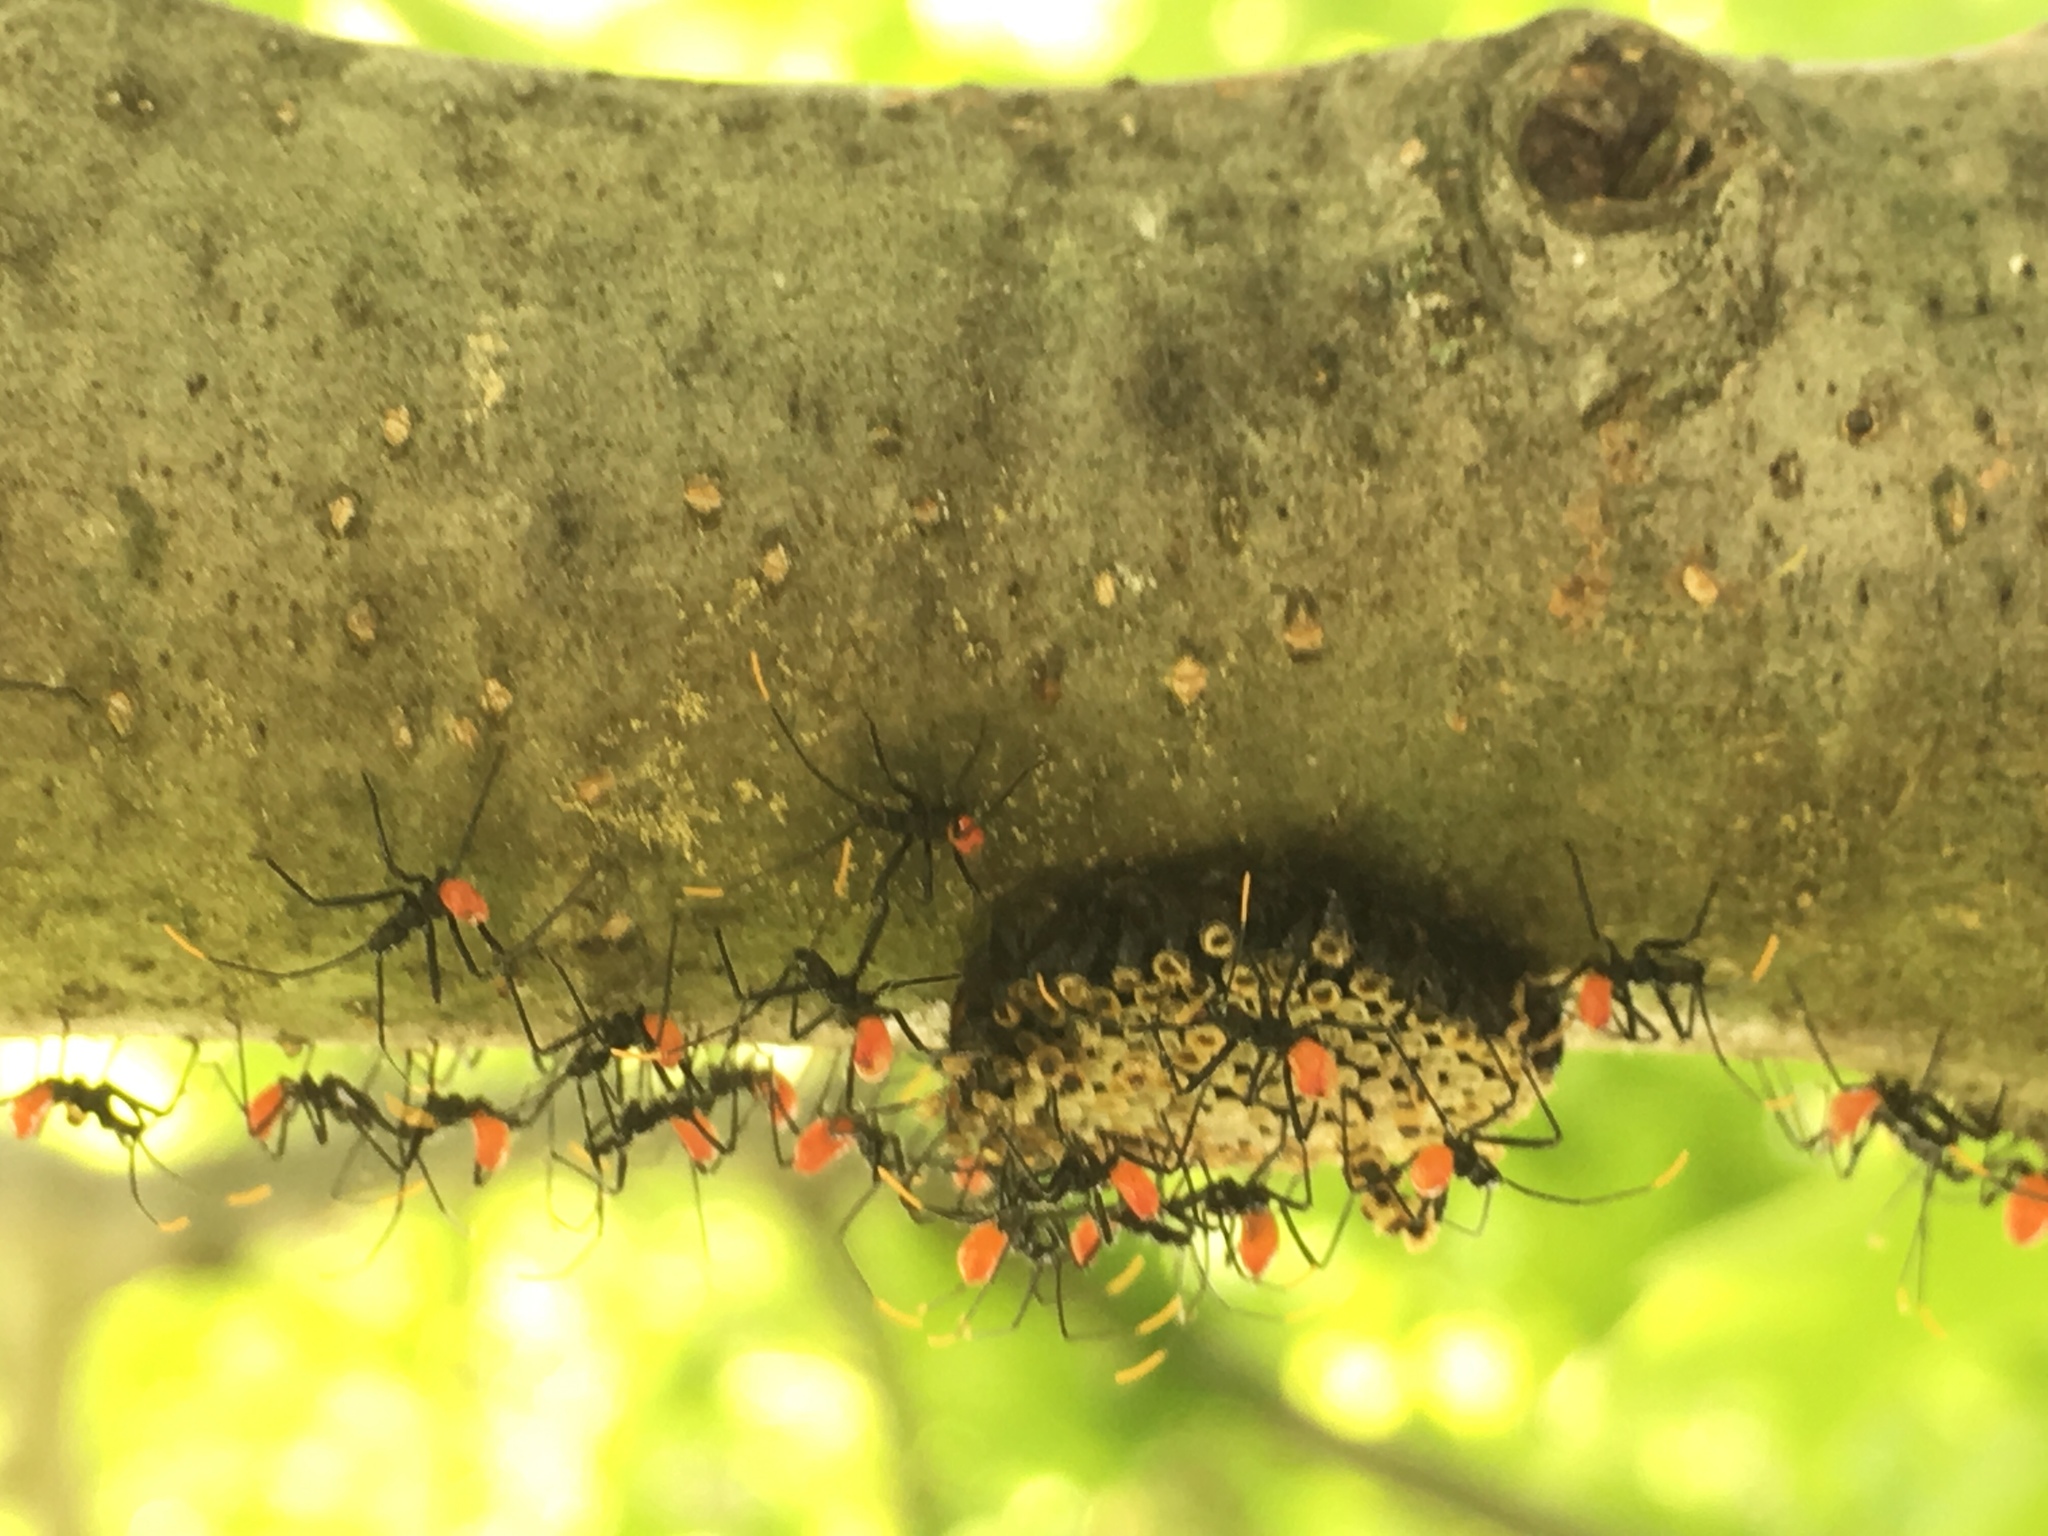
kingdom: Animalia
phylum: Arthropoda
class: Insecta
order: Hemiptera
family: Reduviidae
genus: Arilus
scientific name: Arilus cristatus
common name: North american wheel bug
